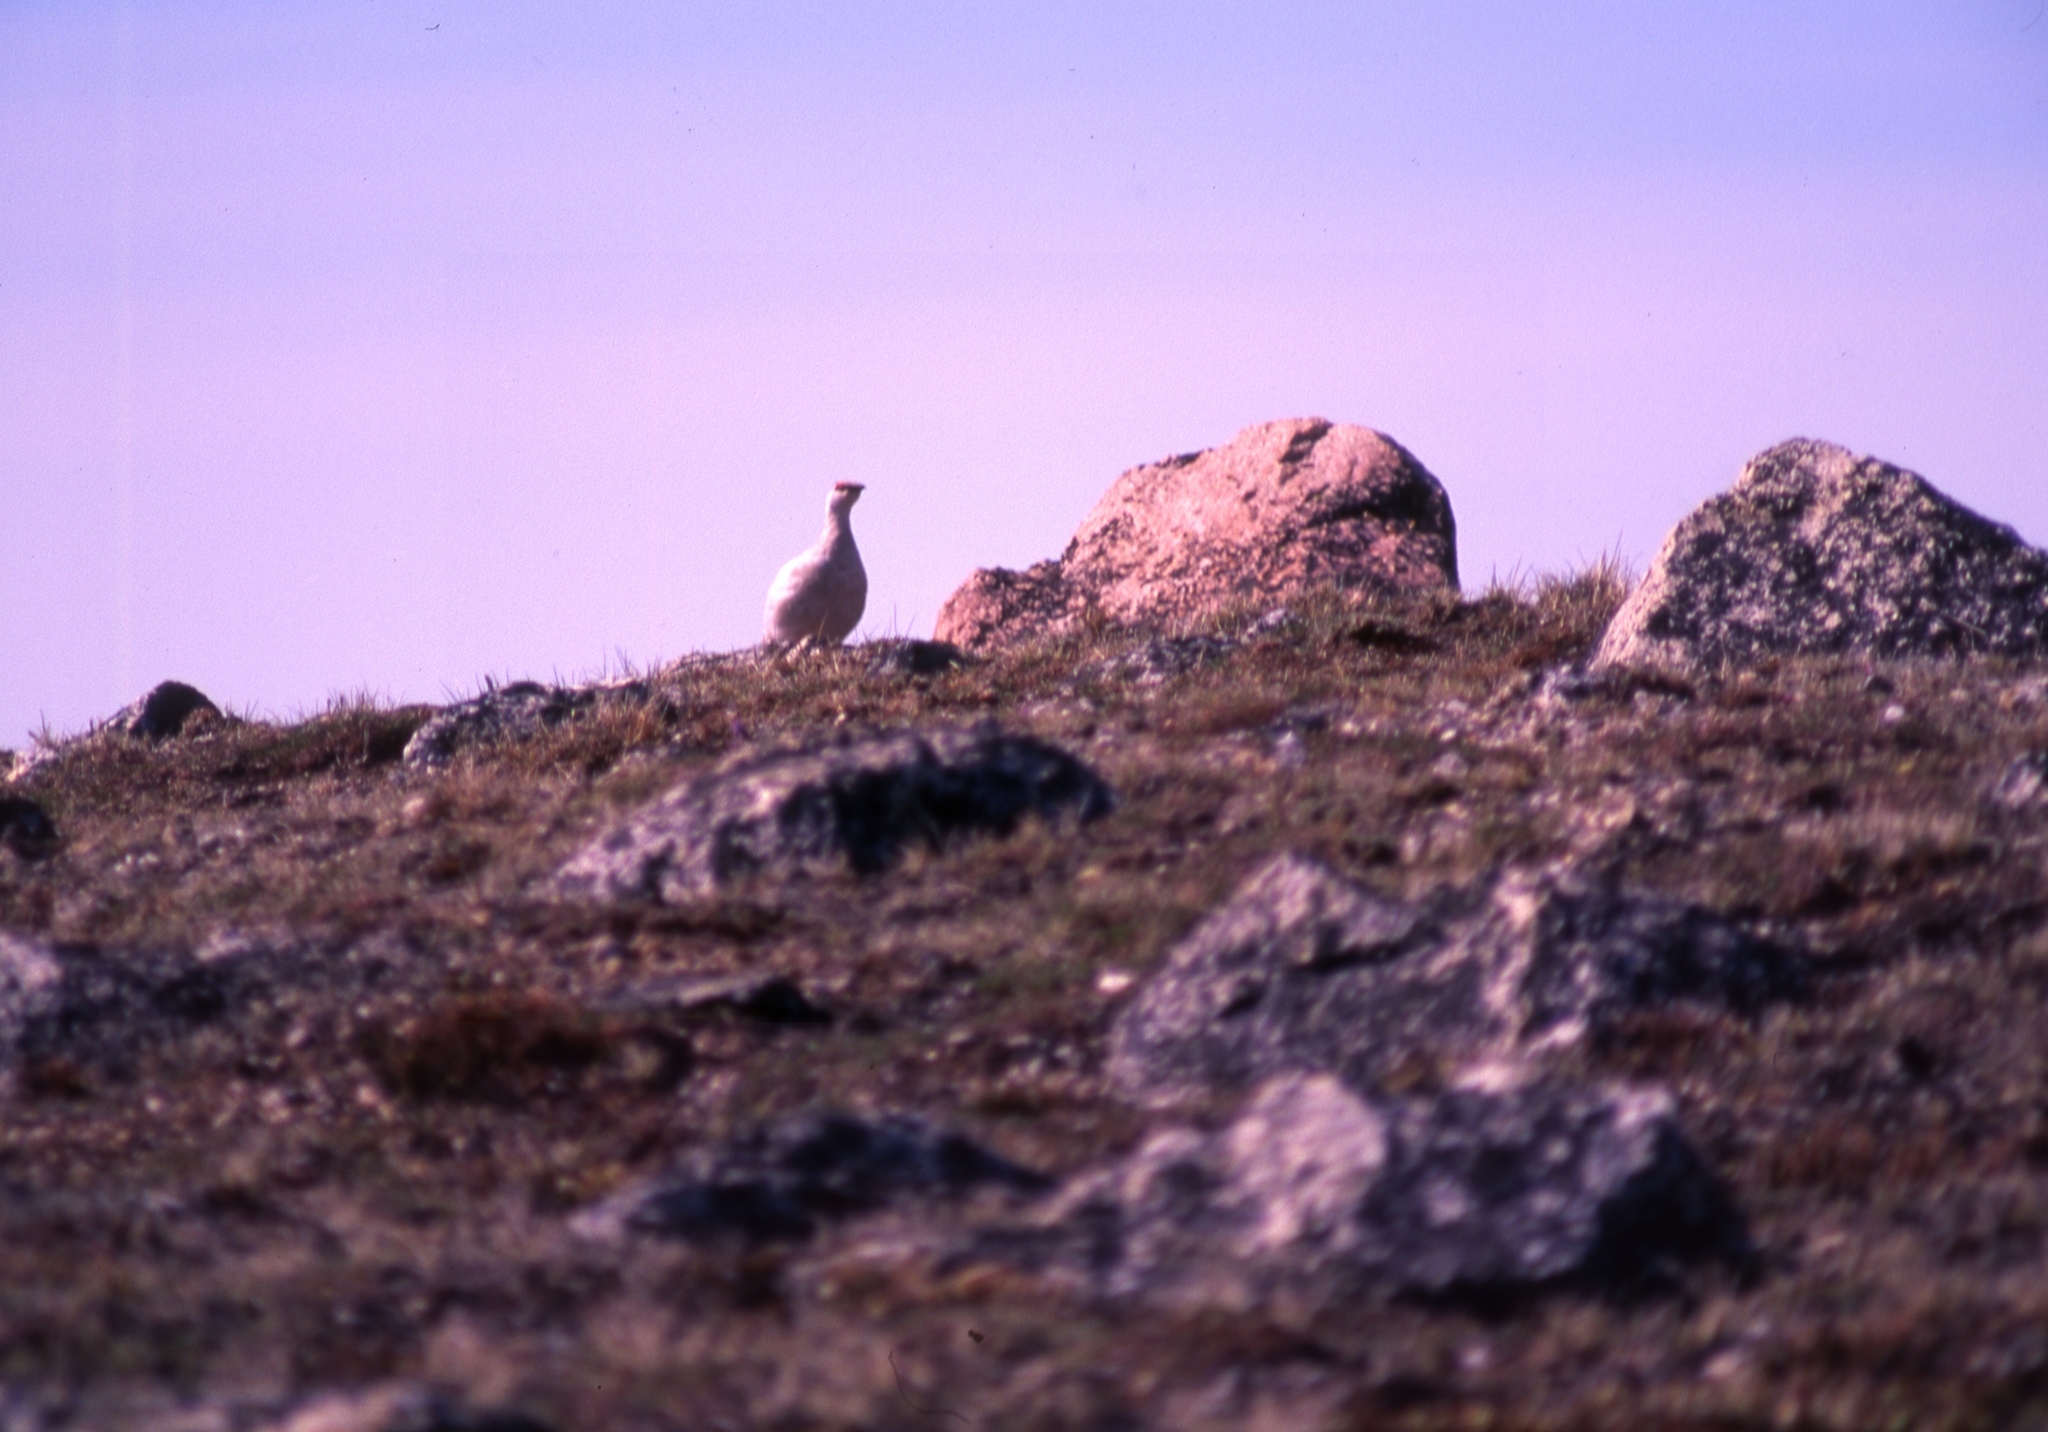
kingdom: Animalia
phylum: Chordata
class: Aves
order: Galliformes
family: Phasianidae
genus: Lagopus
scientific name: Lagopus muta
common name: Rock ptarmigan
